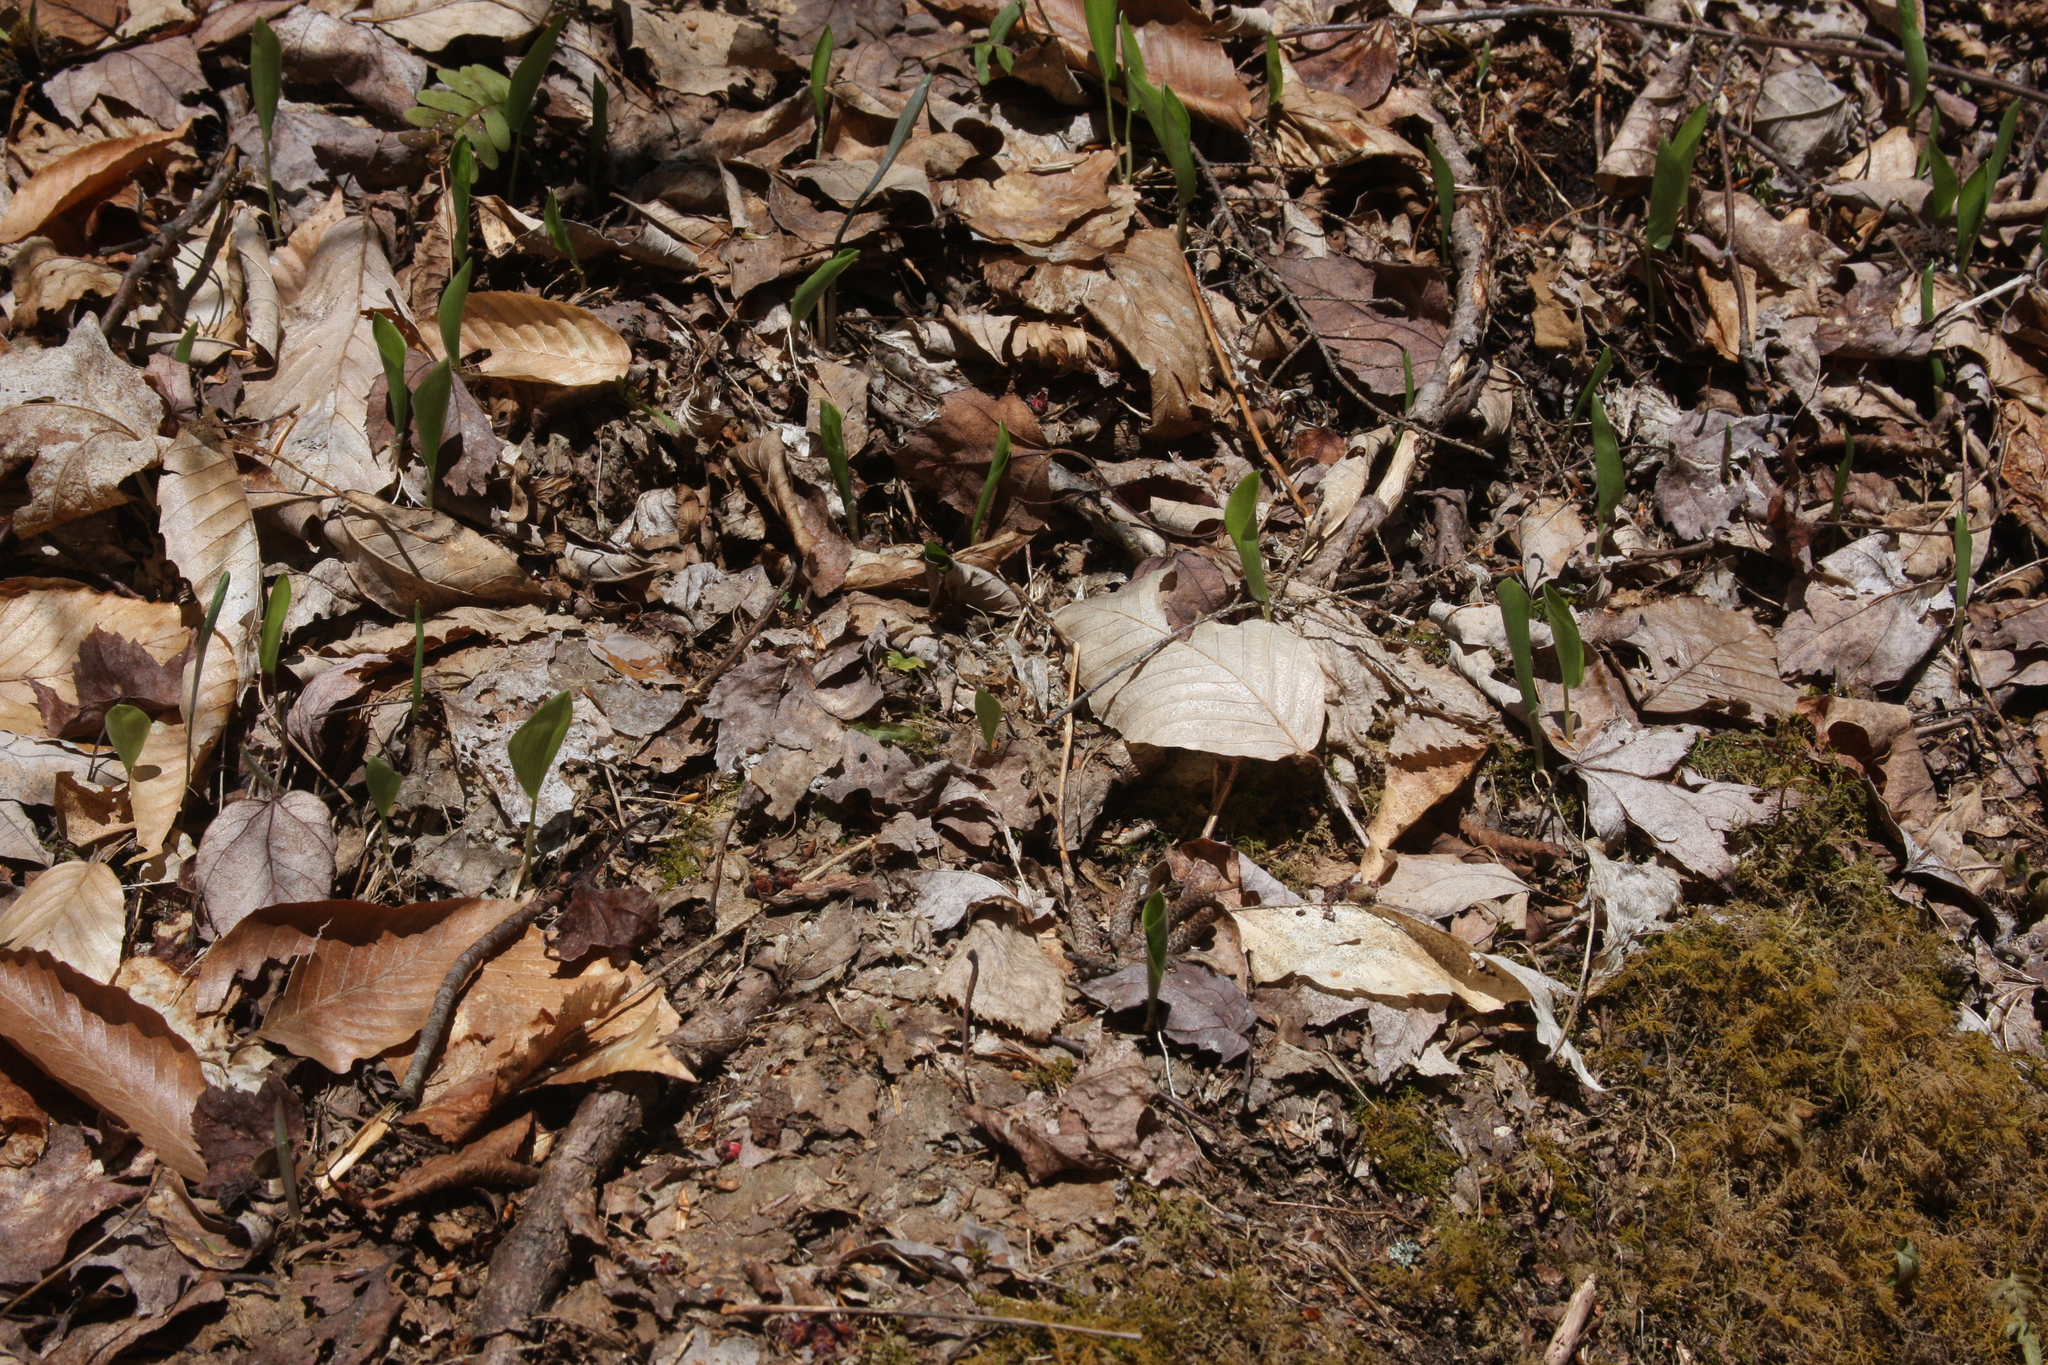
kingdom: Plantae
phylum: Tracheophyta
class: Liliopsida
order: Asparagales
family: Asparagaceae
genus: Maianthemum
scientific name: Maianthemum canadense
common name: False lily-of-the-valley
